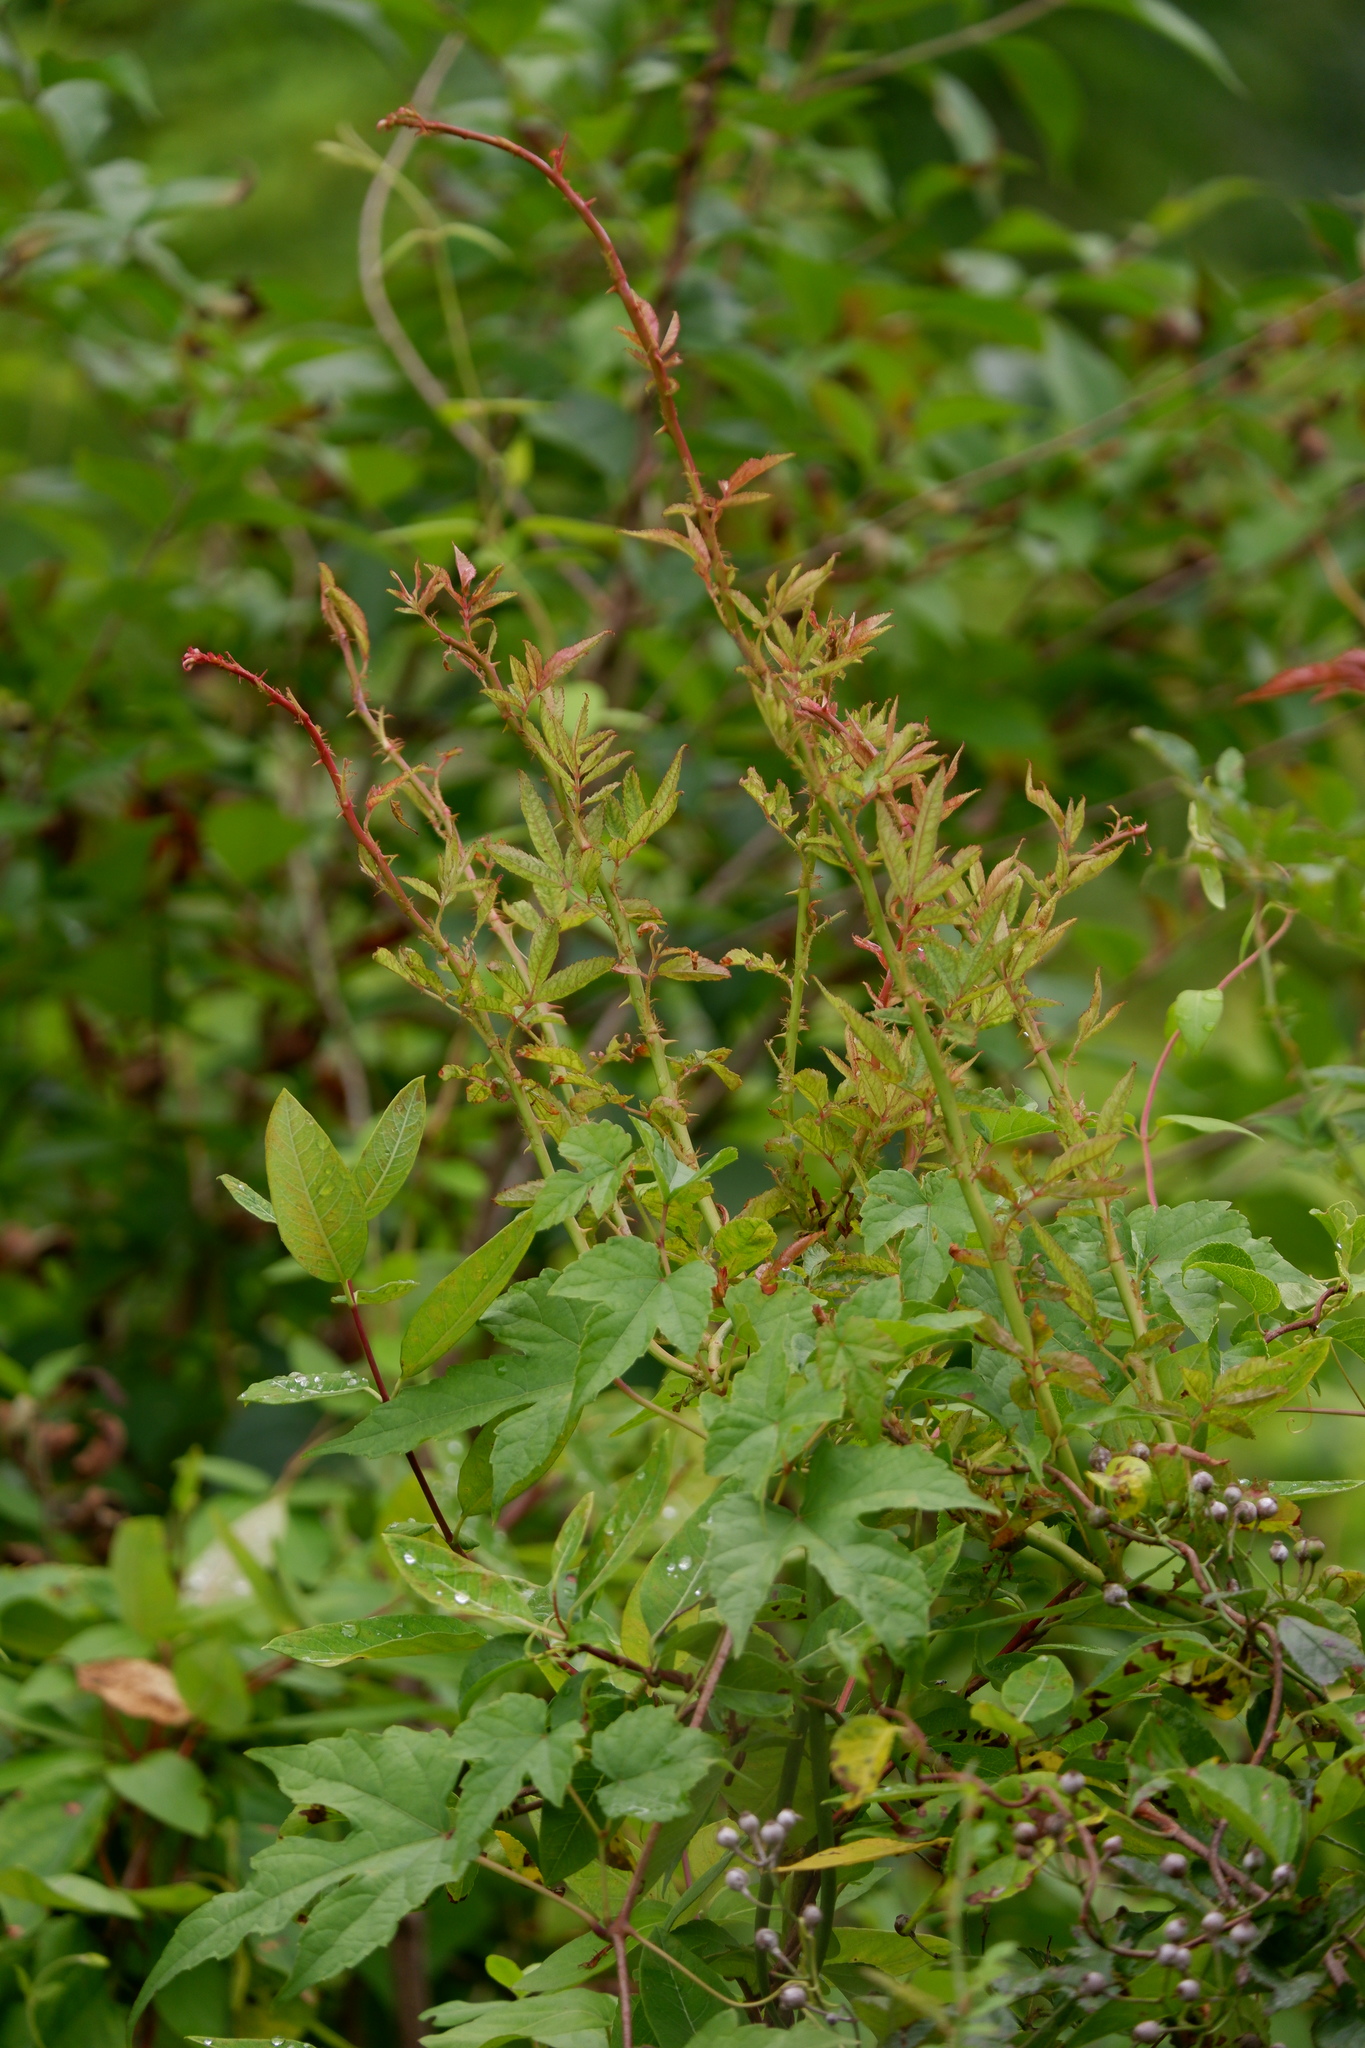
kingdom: Viruses
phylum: Negarnaviricota
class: Ellioviricetes
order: Bunyavirales
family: Fimoviridae
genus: Emaravirus
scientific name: Emaravirus rosae
